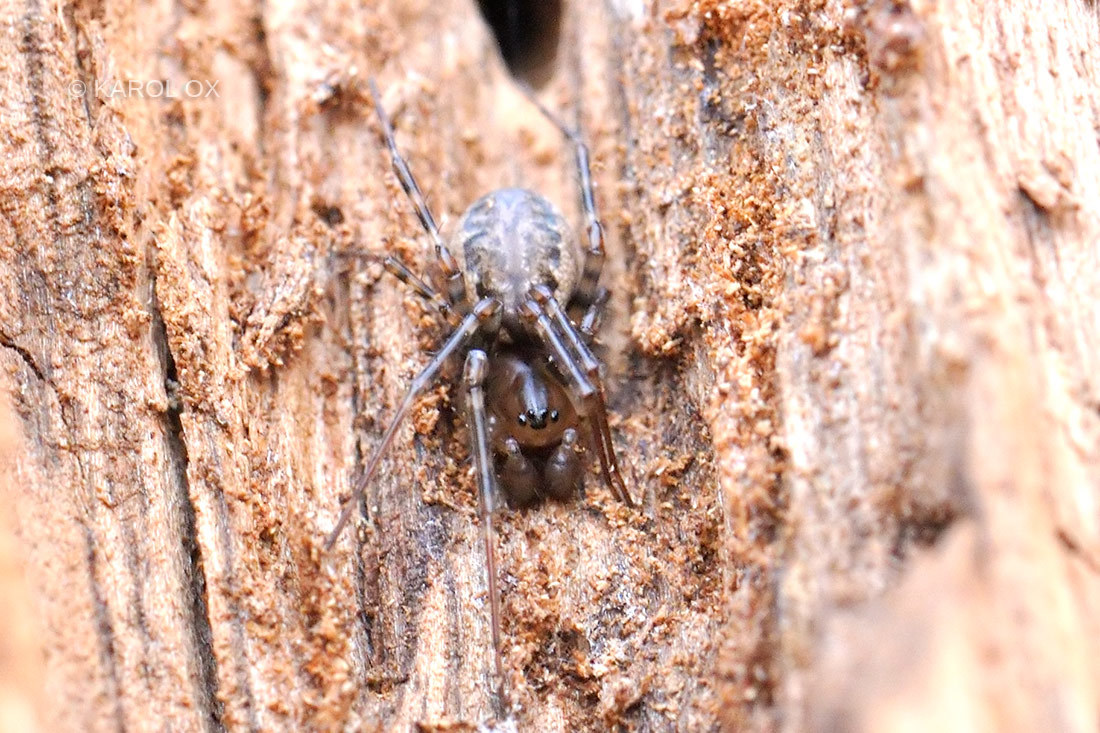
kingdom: Animalia
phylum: Arthropoda
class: Arachnida
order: Araneae
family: Linyphiidae
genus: Neriene
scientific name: Neriene montana
